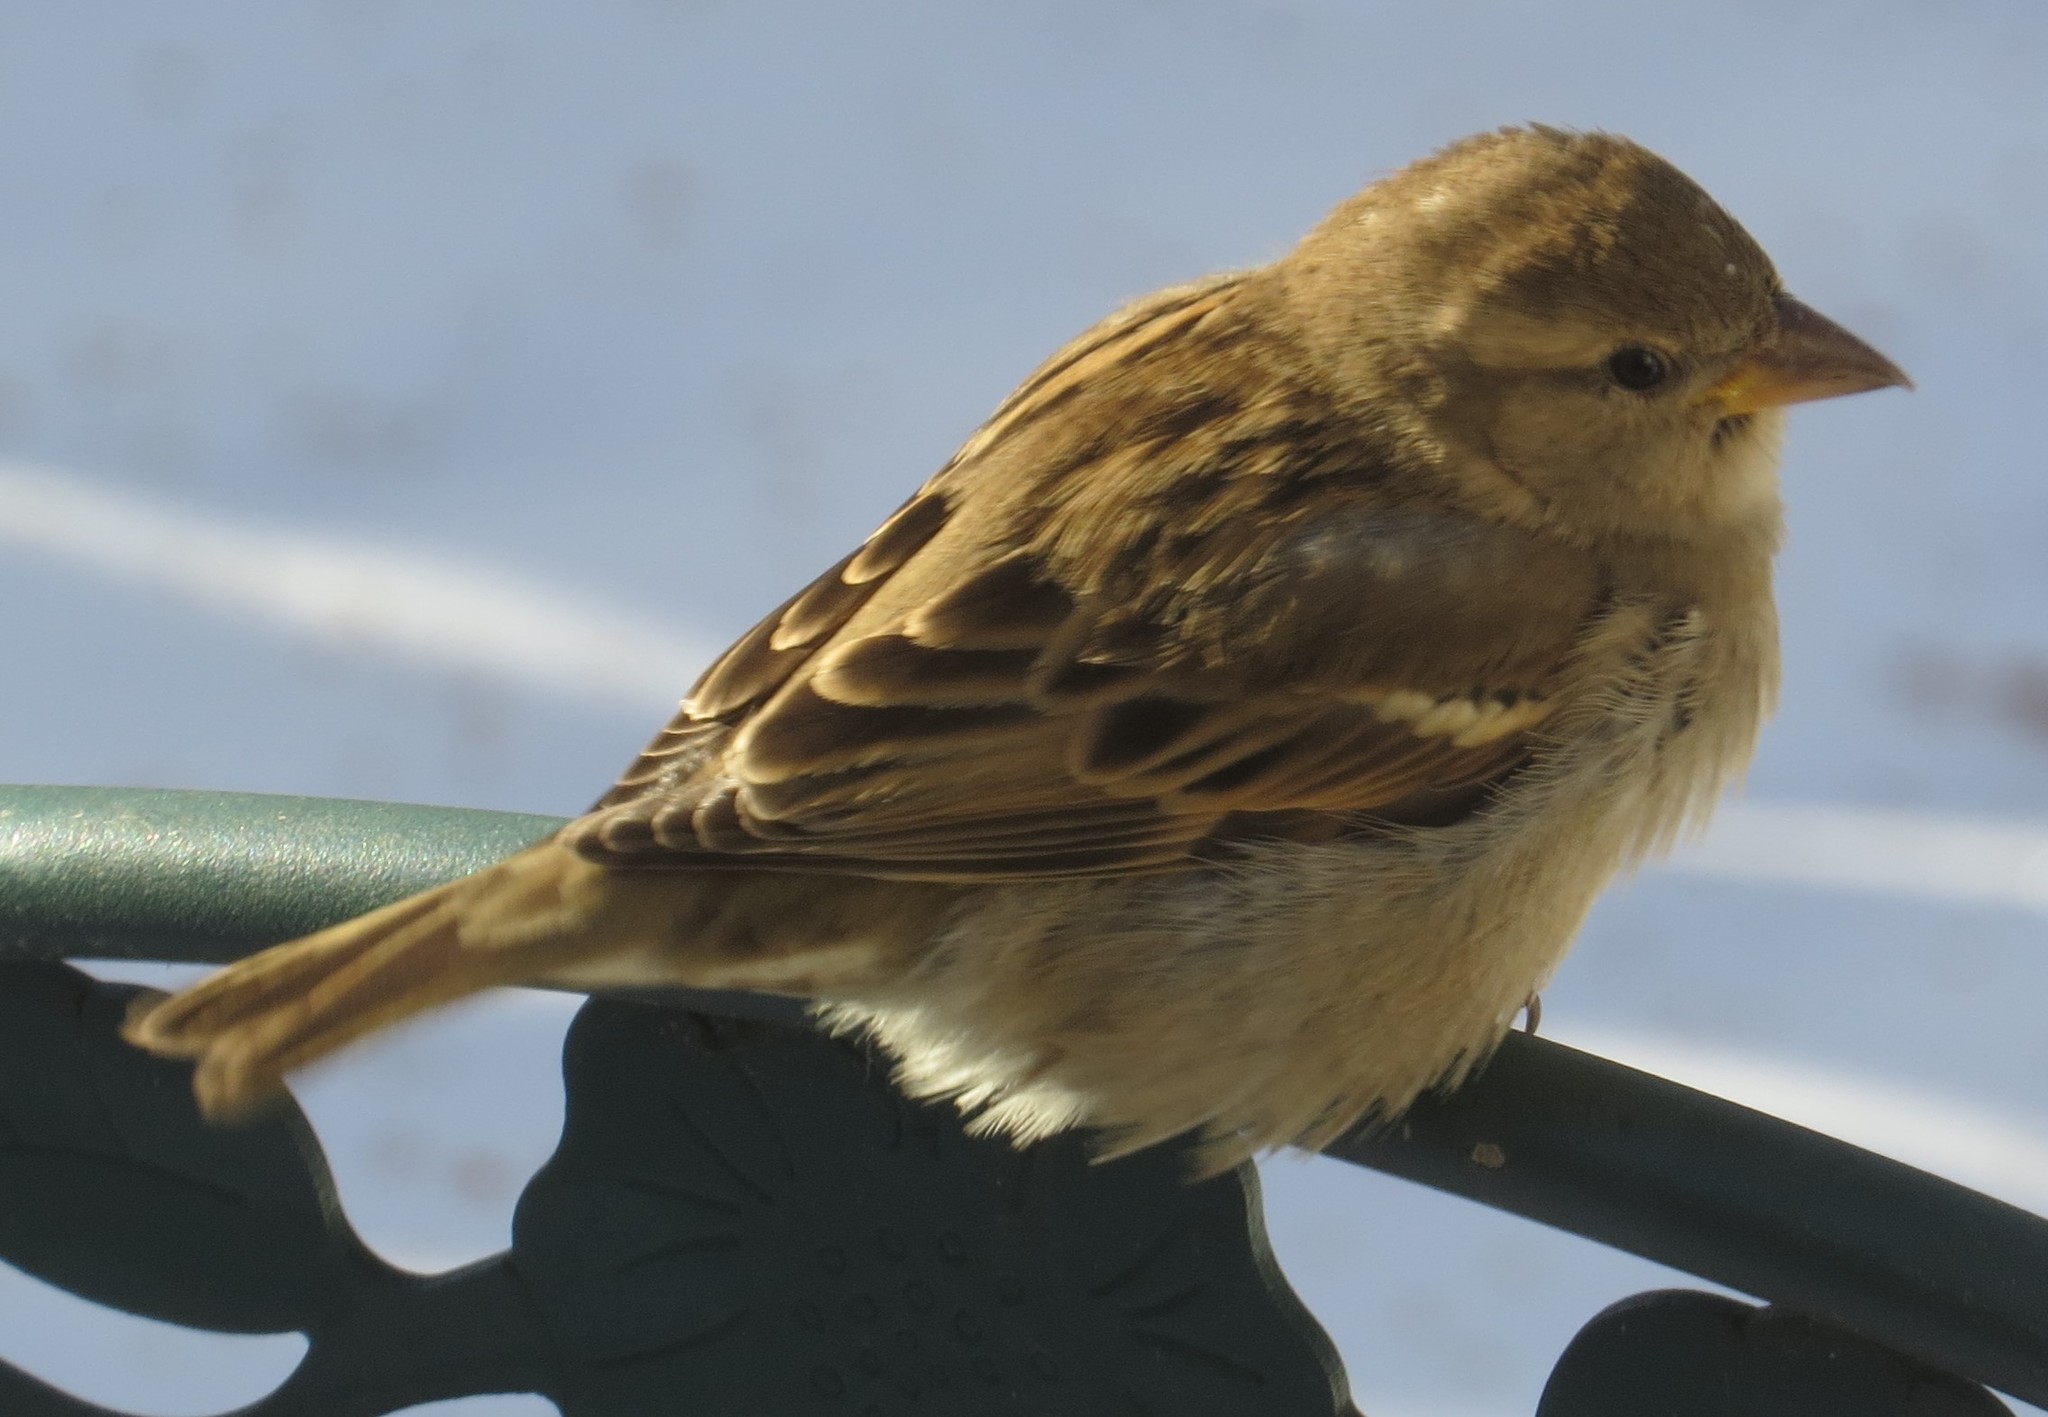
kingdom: Animalia
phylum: Chordata
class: Aves
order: Passeriformes
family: Passeridae
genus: Passer
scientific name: Passer domesticus
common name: House sparrow
